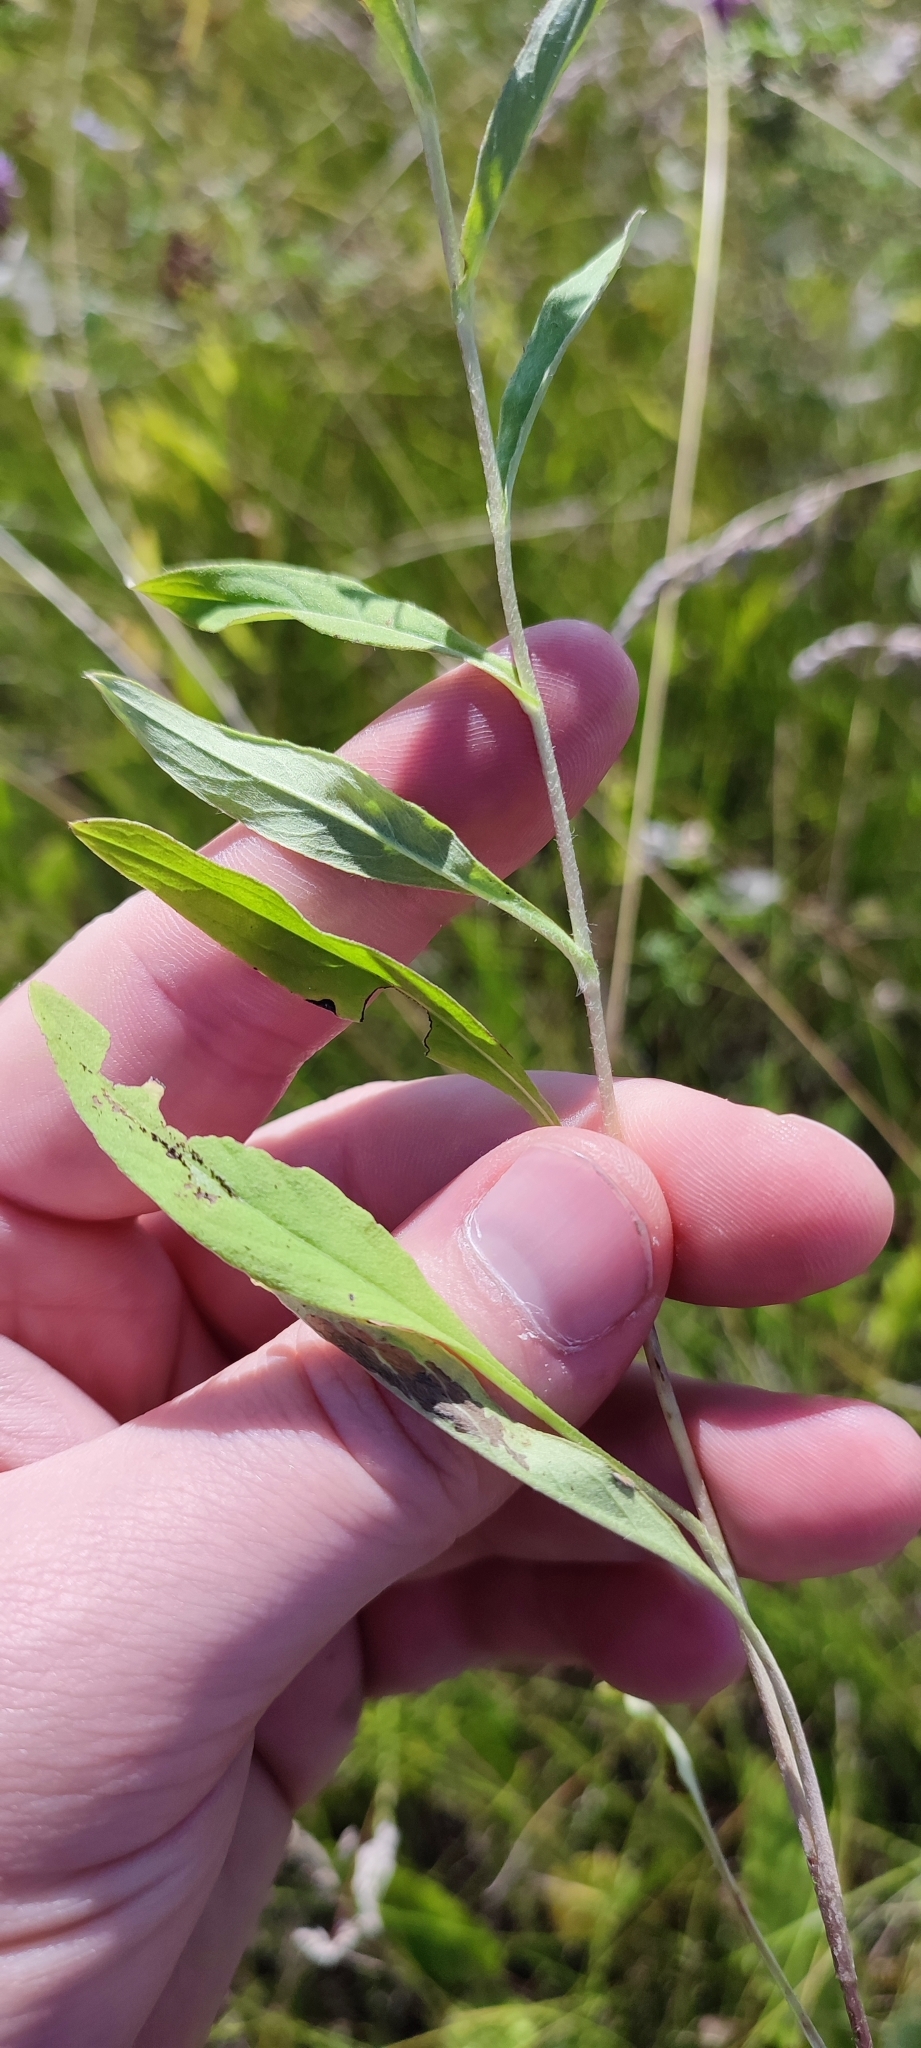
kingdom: Plantae
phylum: Tracheophyta
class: Magnoliopsida
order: Asterales
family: Asteraceae
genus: Pentanema
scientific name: Pentanema britannicum
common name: British elecampane
